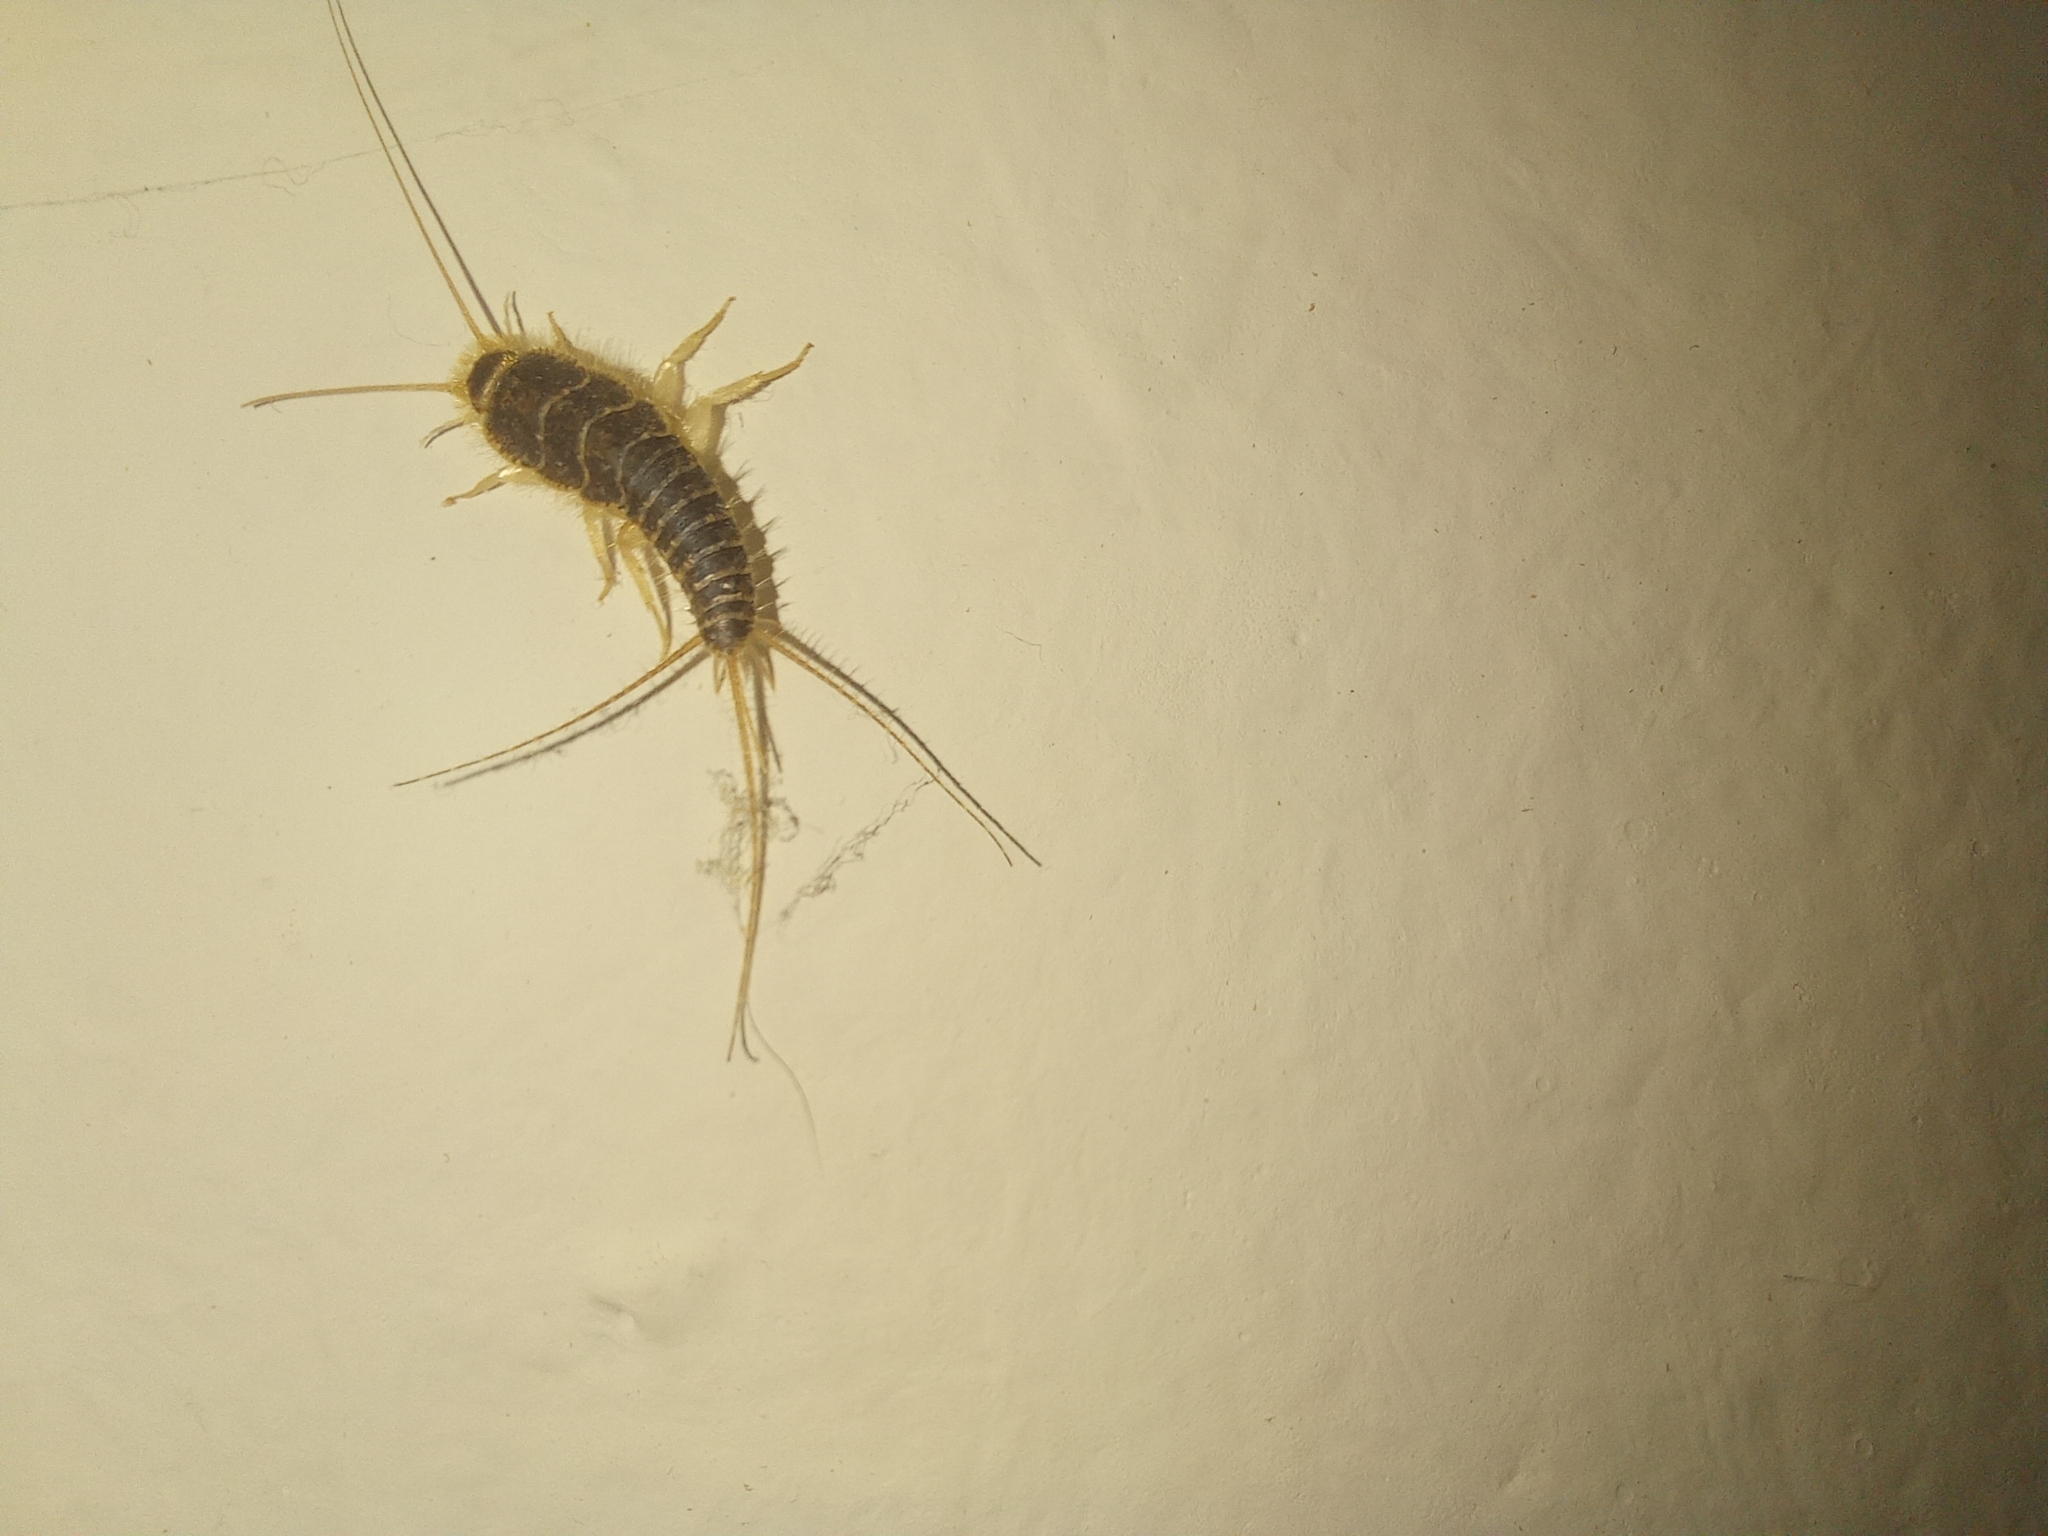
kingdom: Animalia
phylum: Arthropoda
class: Insecta
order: Zygentoma
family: Lepismatidae
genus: Ctenolepisma
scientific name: Ctenolepisma longicaudatum
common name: Silverfish
